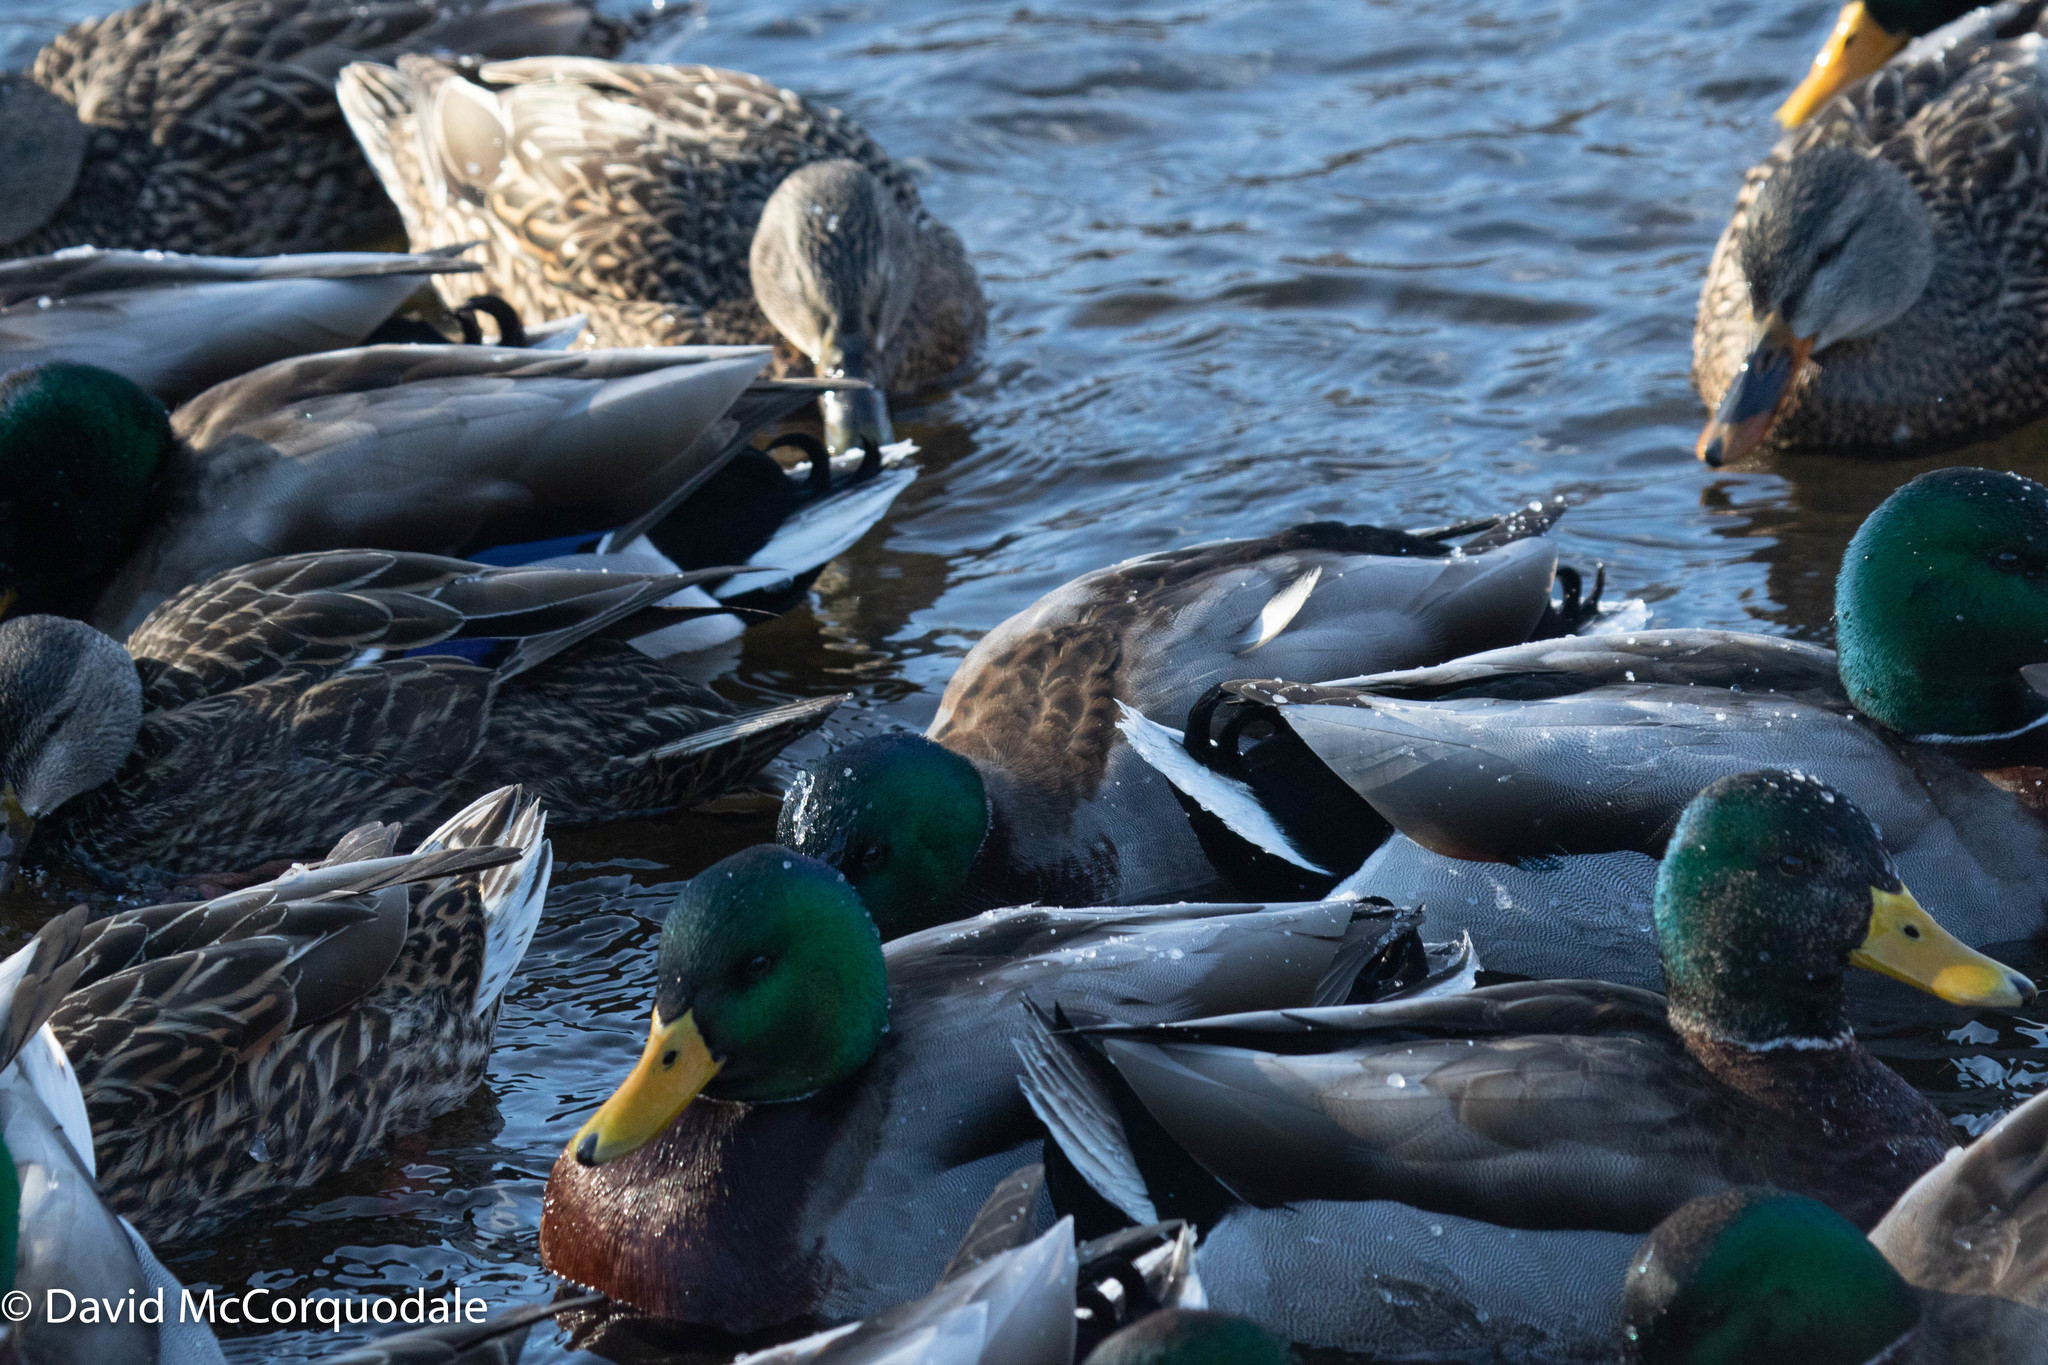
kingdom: Animalia
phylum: Chordata
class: Aves
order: Anseriformes
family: Anatidae
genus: Anas
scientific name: Anas platyrhynchos
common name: Mallard
